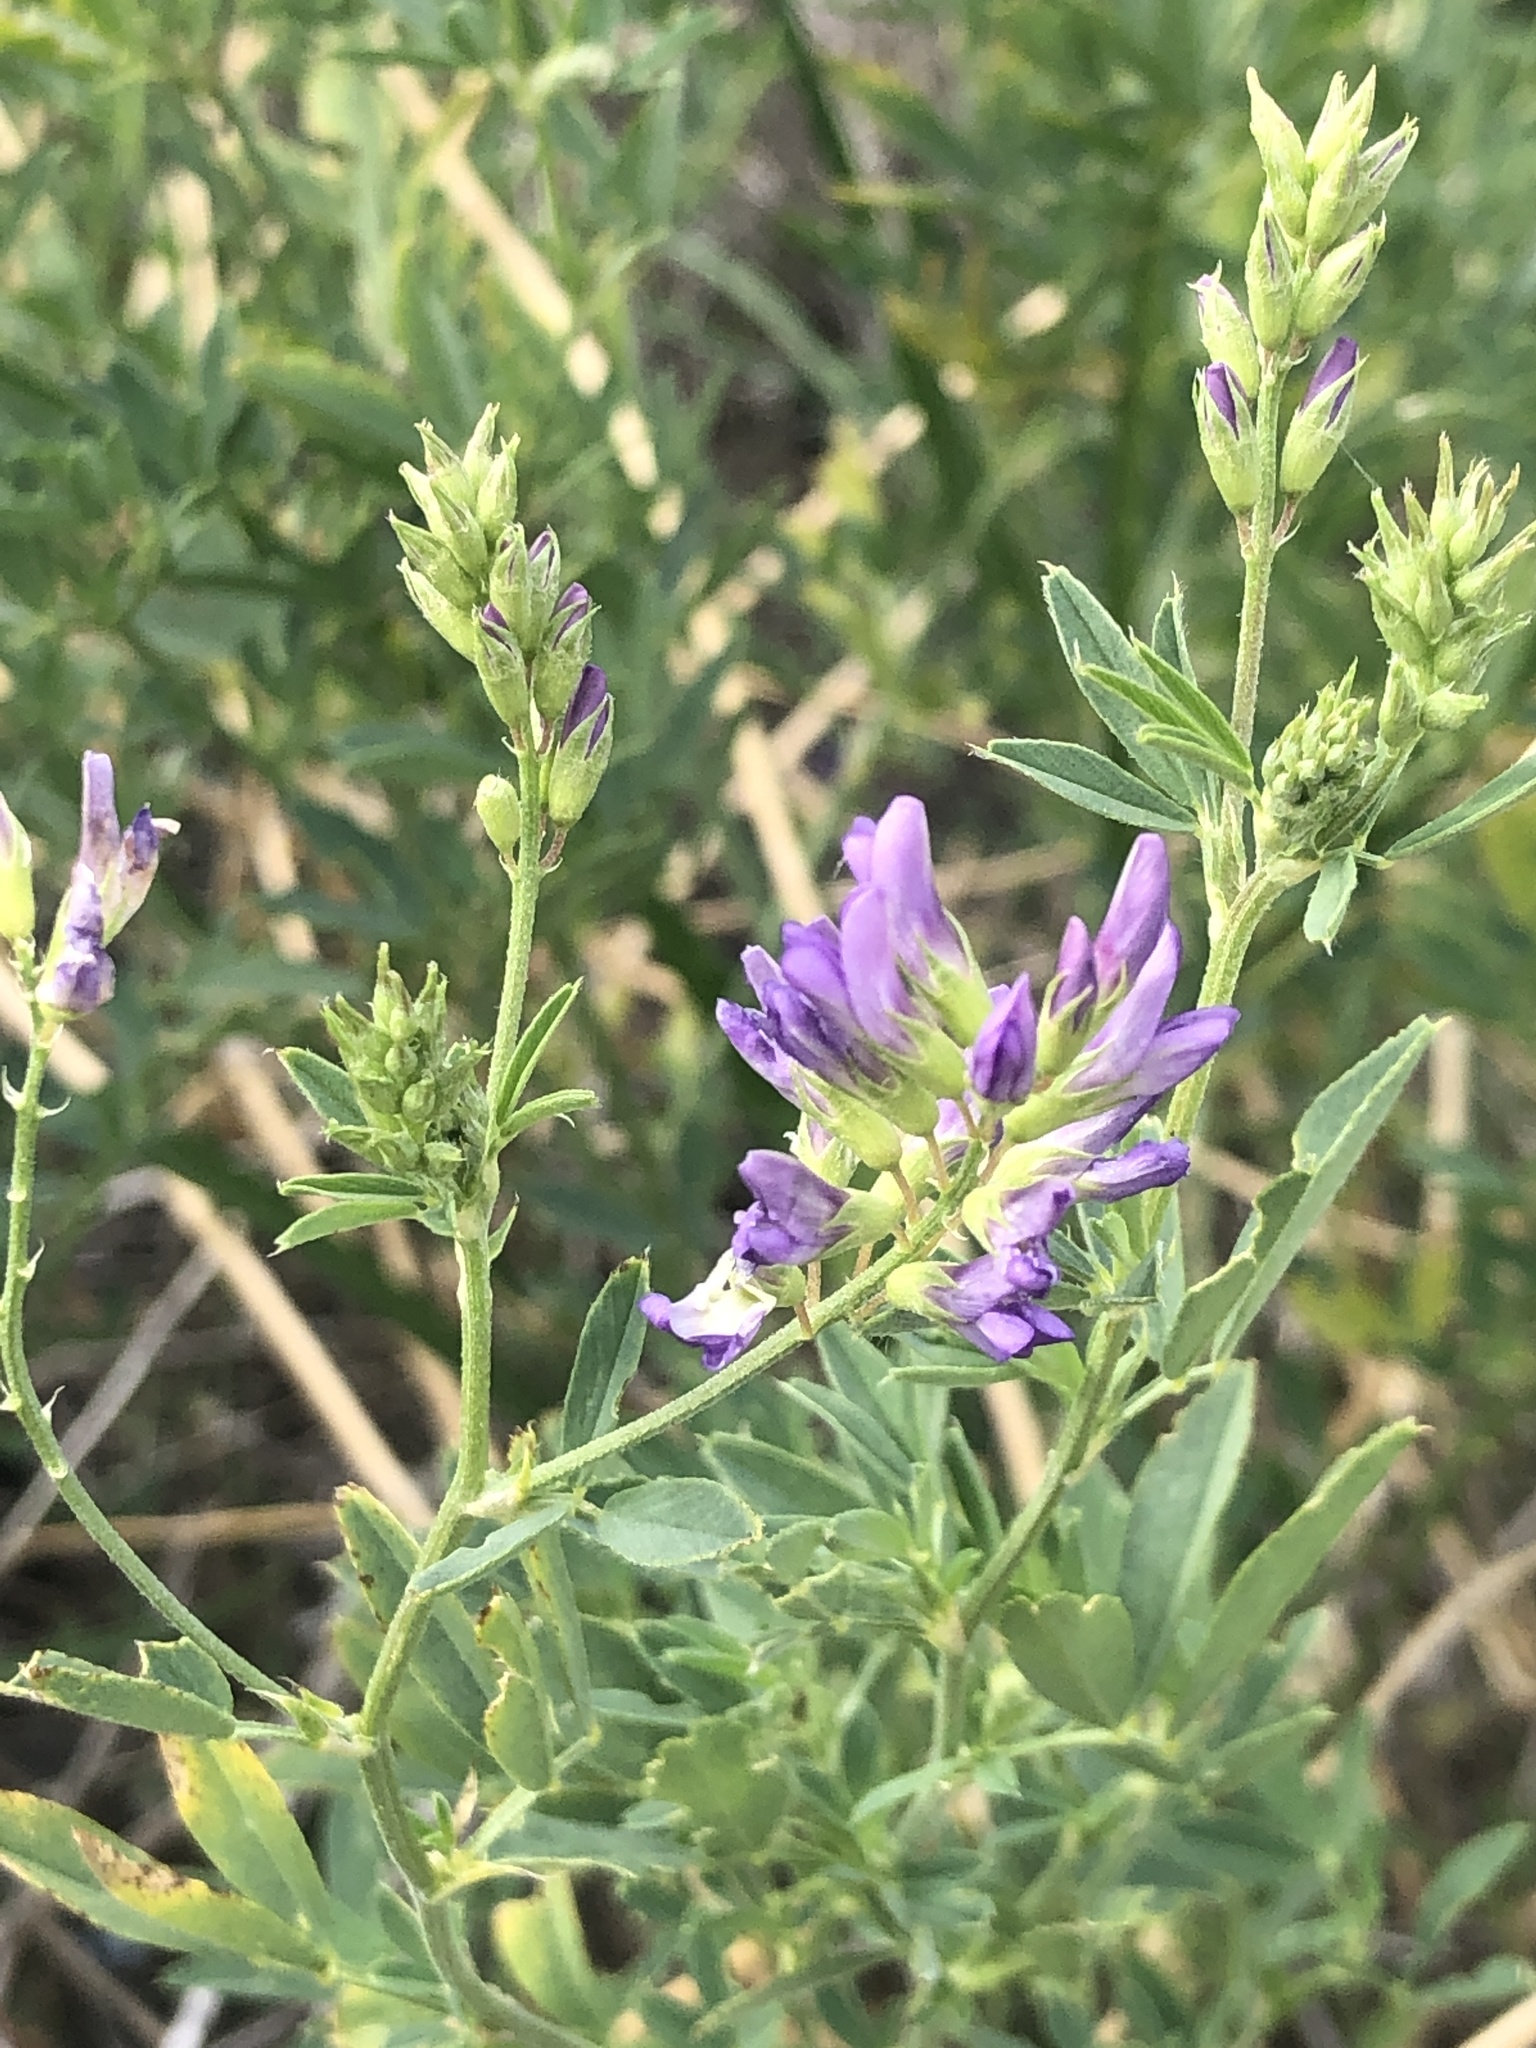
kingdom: Plantae
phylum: Tracheophyta
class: Magnoliopsida
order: Fabales
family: Fabaceae
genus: Medicago
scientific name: Medicago sativa
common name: Alfalfa
